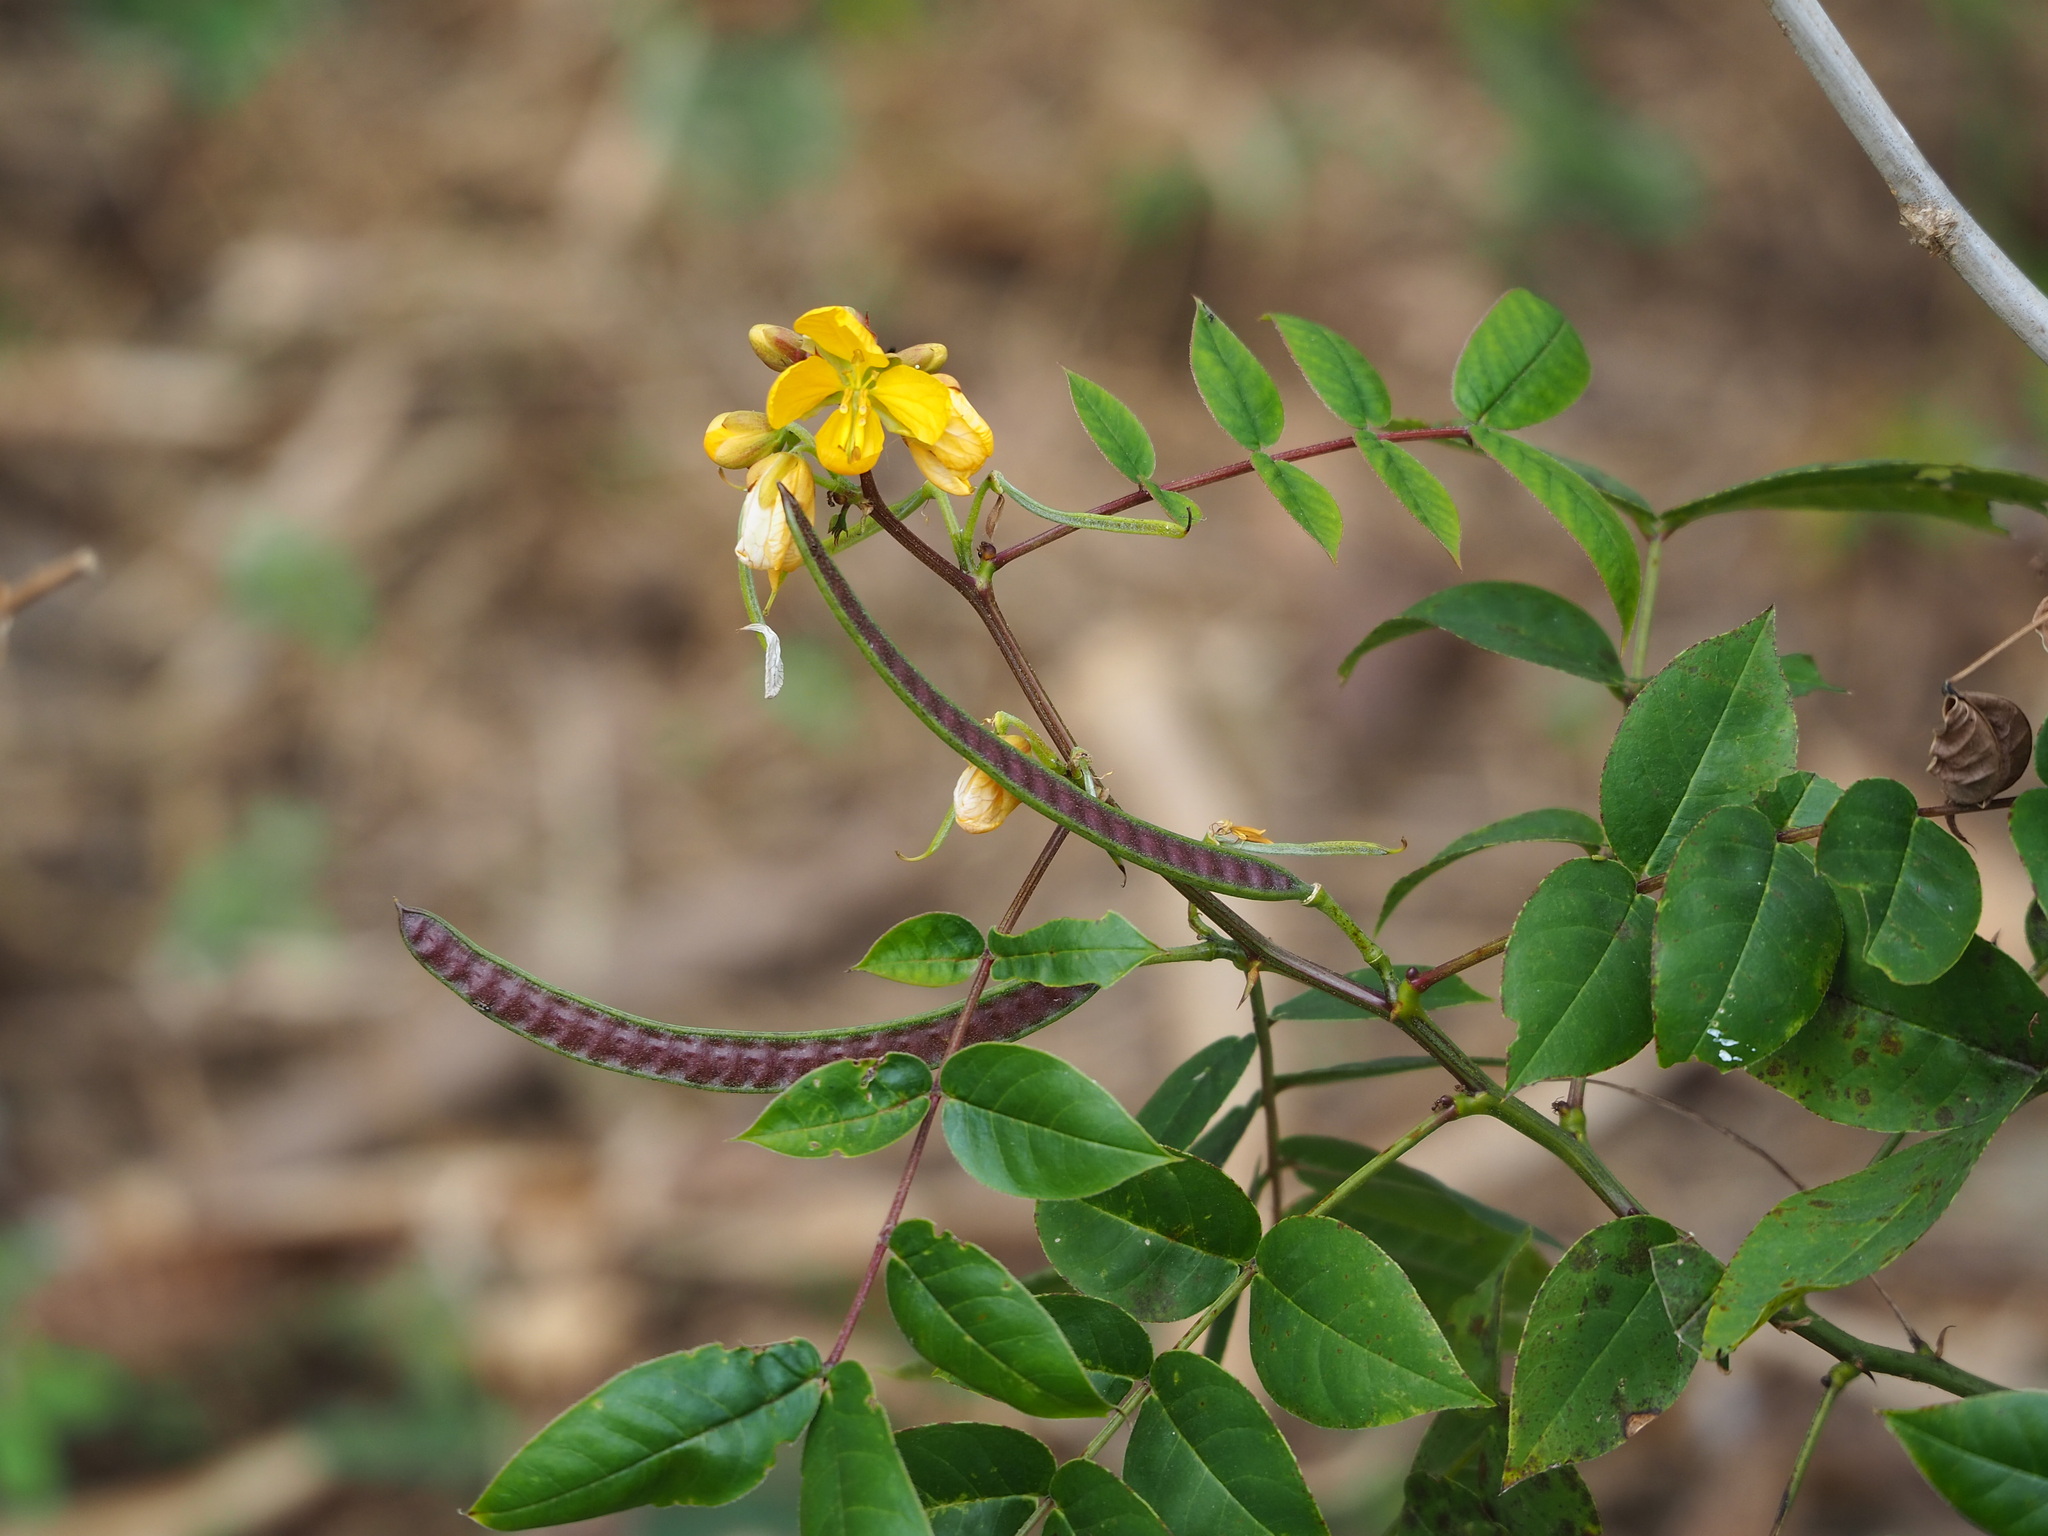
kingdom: Plantae
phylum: Tracheophyta
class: Magnoliopsida
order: Fabales
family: Fabaceae
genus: Senna
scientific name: Senna occidentalis
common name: Septicweed
